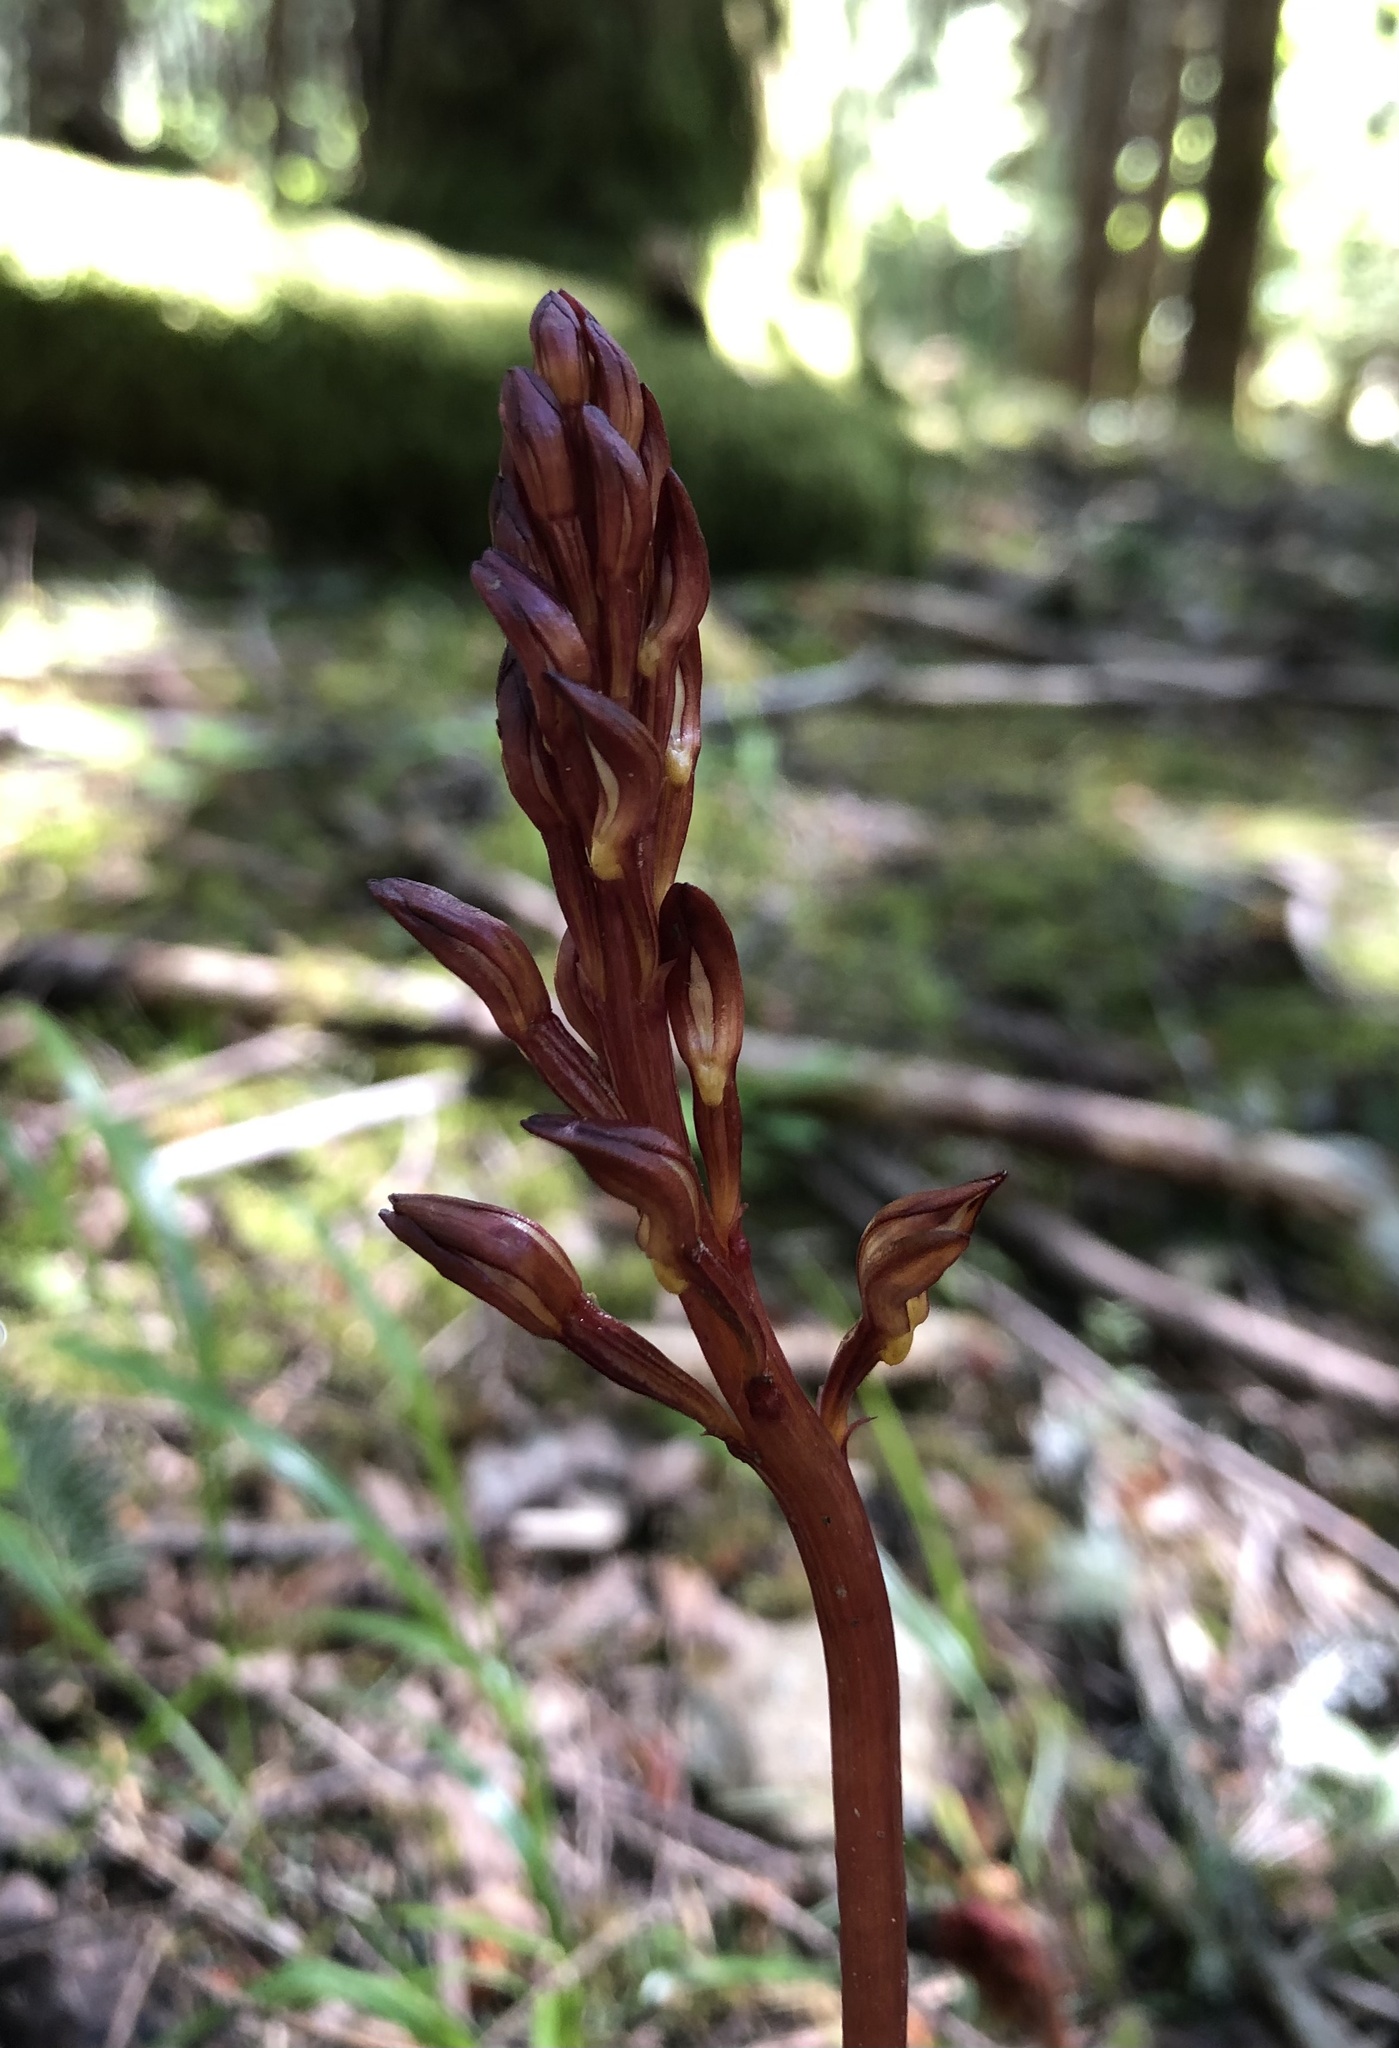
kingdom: Plantae
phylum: Tracheophyta
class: Liliopsida
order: Asparagales
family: Orchidaceae
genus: Corallorhiza
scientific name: Corallorhiza maculata
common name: Spotted coralroot
